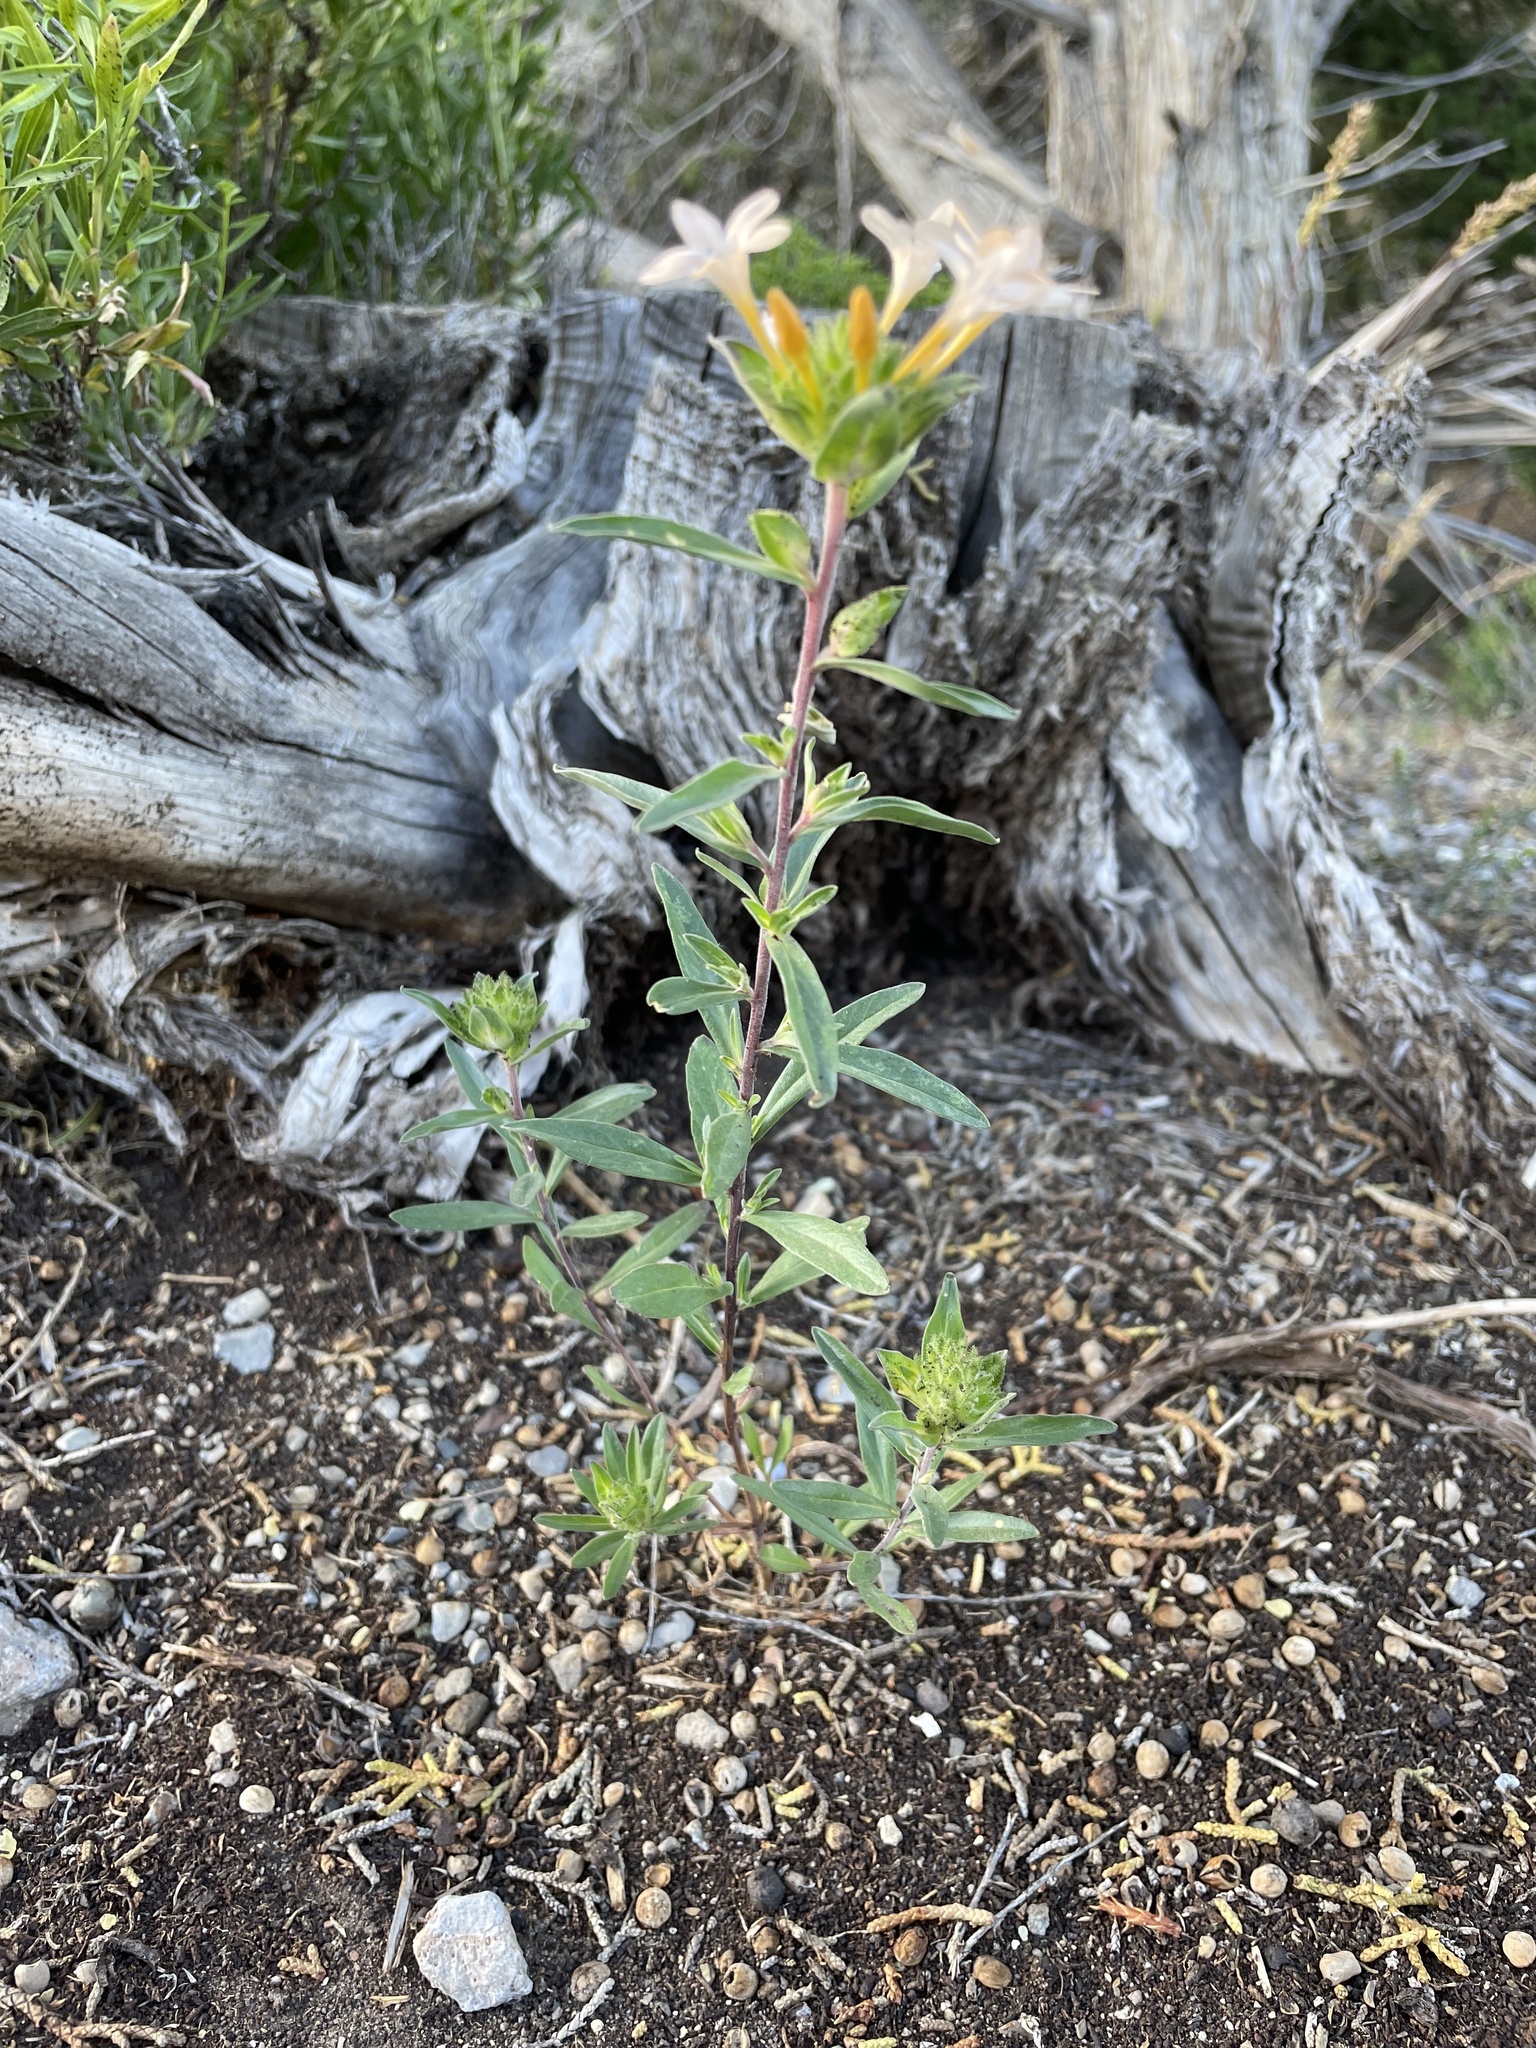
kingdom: Plantae
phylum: Tracheophyta
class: Magnoliopsida
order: Ericales
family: Polemoniaceae
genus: Collomia
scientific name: Collomia grandiflora
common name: California strawflower
